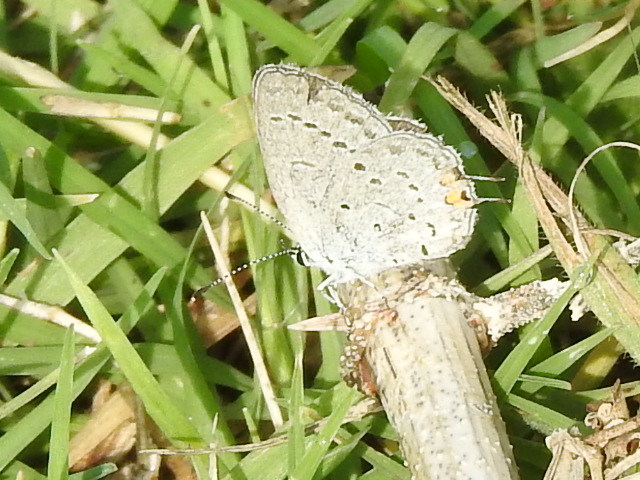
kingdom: Animalia
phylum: Arthropoda
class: Insecta
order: Lepidoptera
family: Lycaenidae
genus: Elkalyce
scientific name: Elkalyce comyntas
